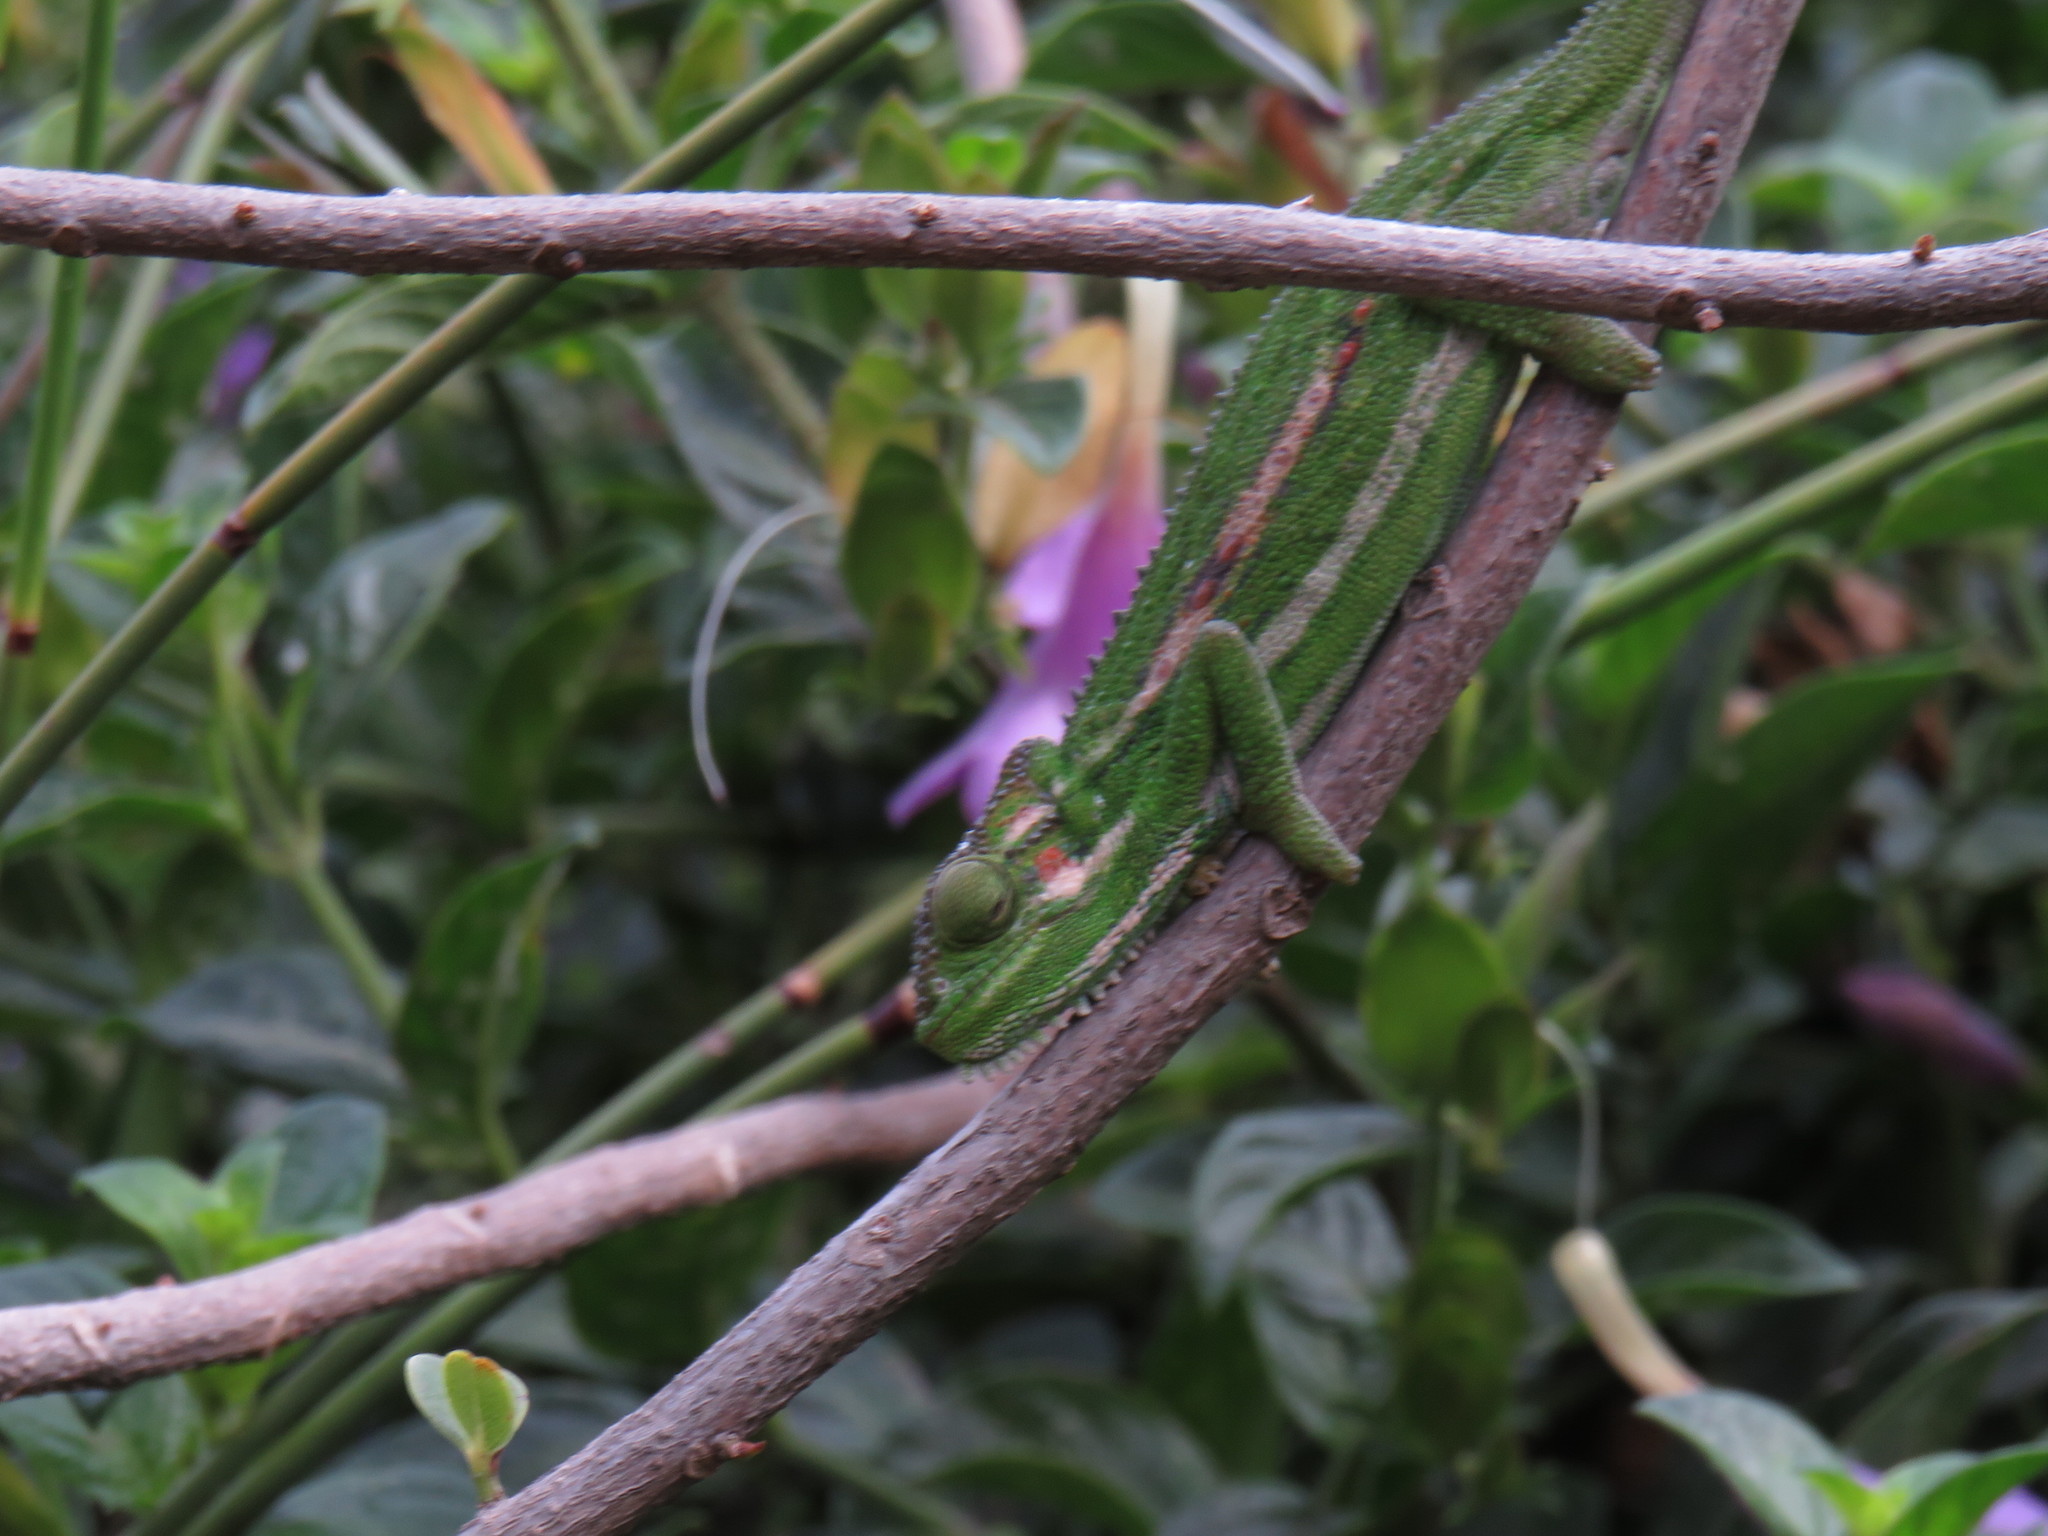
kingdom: Animalia
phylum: Chordata
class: Squamata
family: Chamaeleonidae
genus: Bradypodion
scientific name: Bradypodion pumilum
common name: Cape dwarf chameleon
